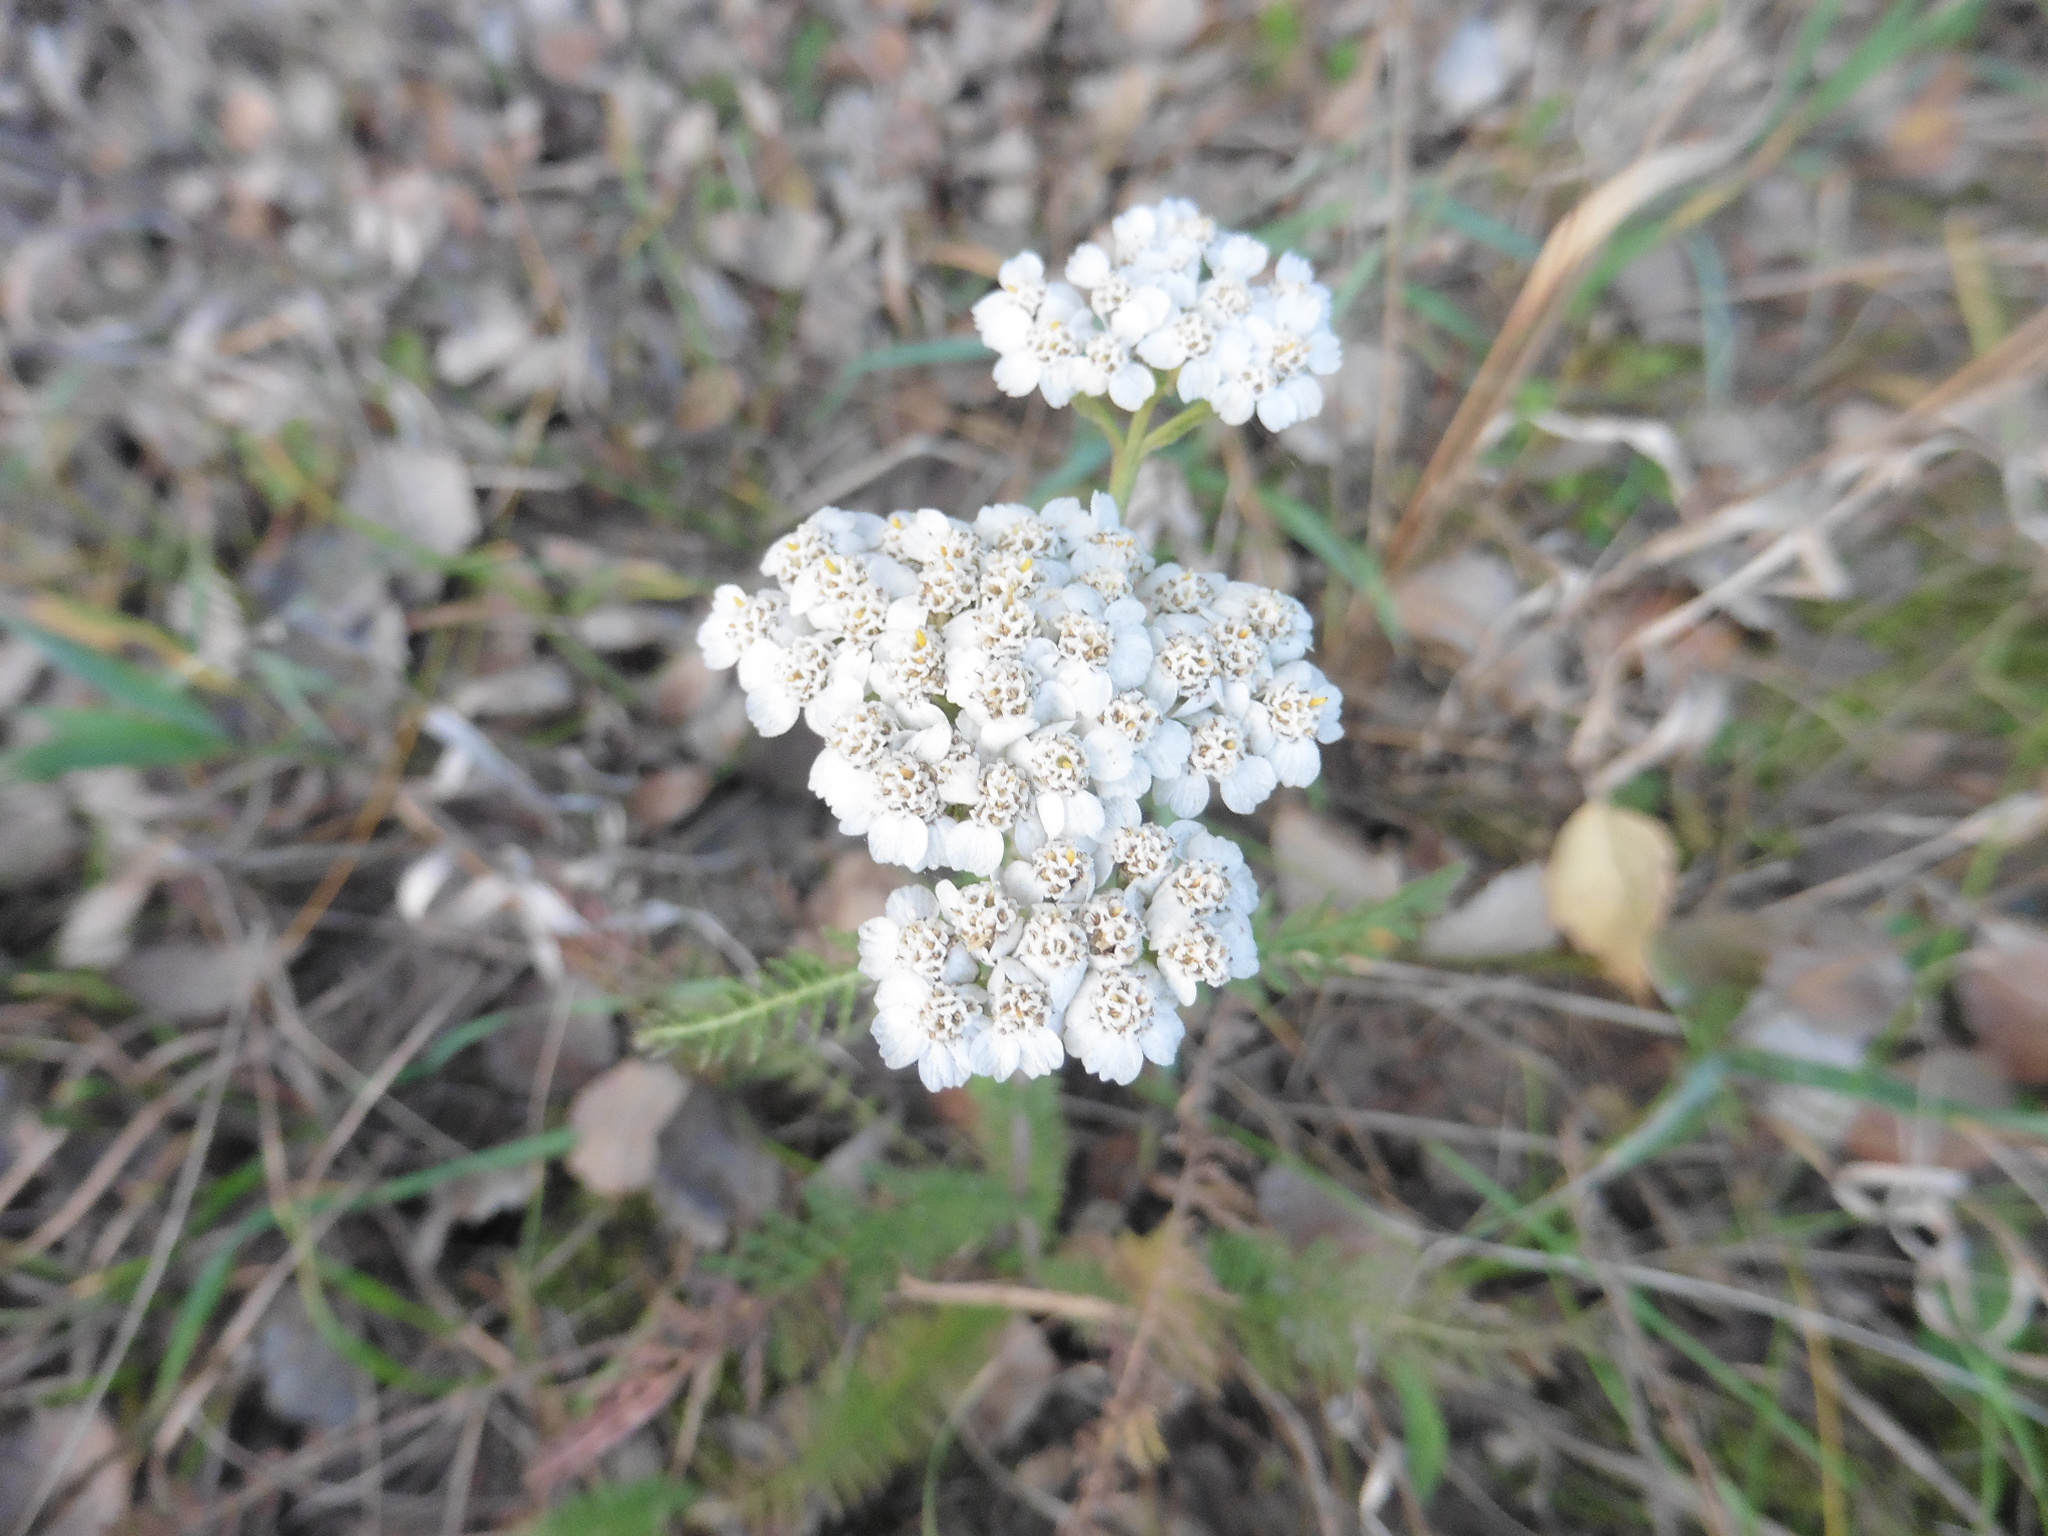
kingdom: Plantae
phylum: Tracheophyta
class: Magnoliopsida
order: Asterales
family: Asteraceae
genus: Achillea
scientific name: Achillea millefolium
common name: Yarrow
